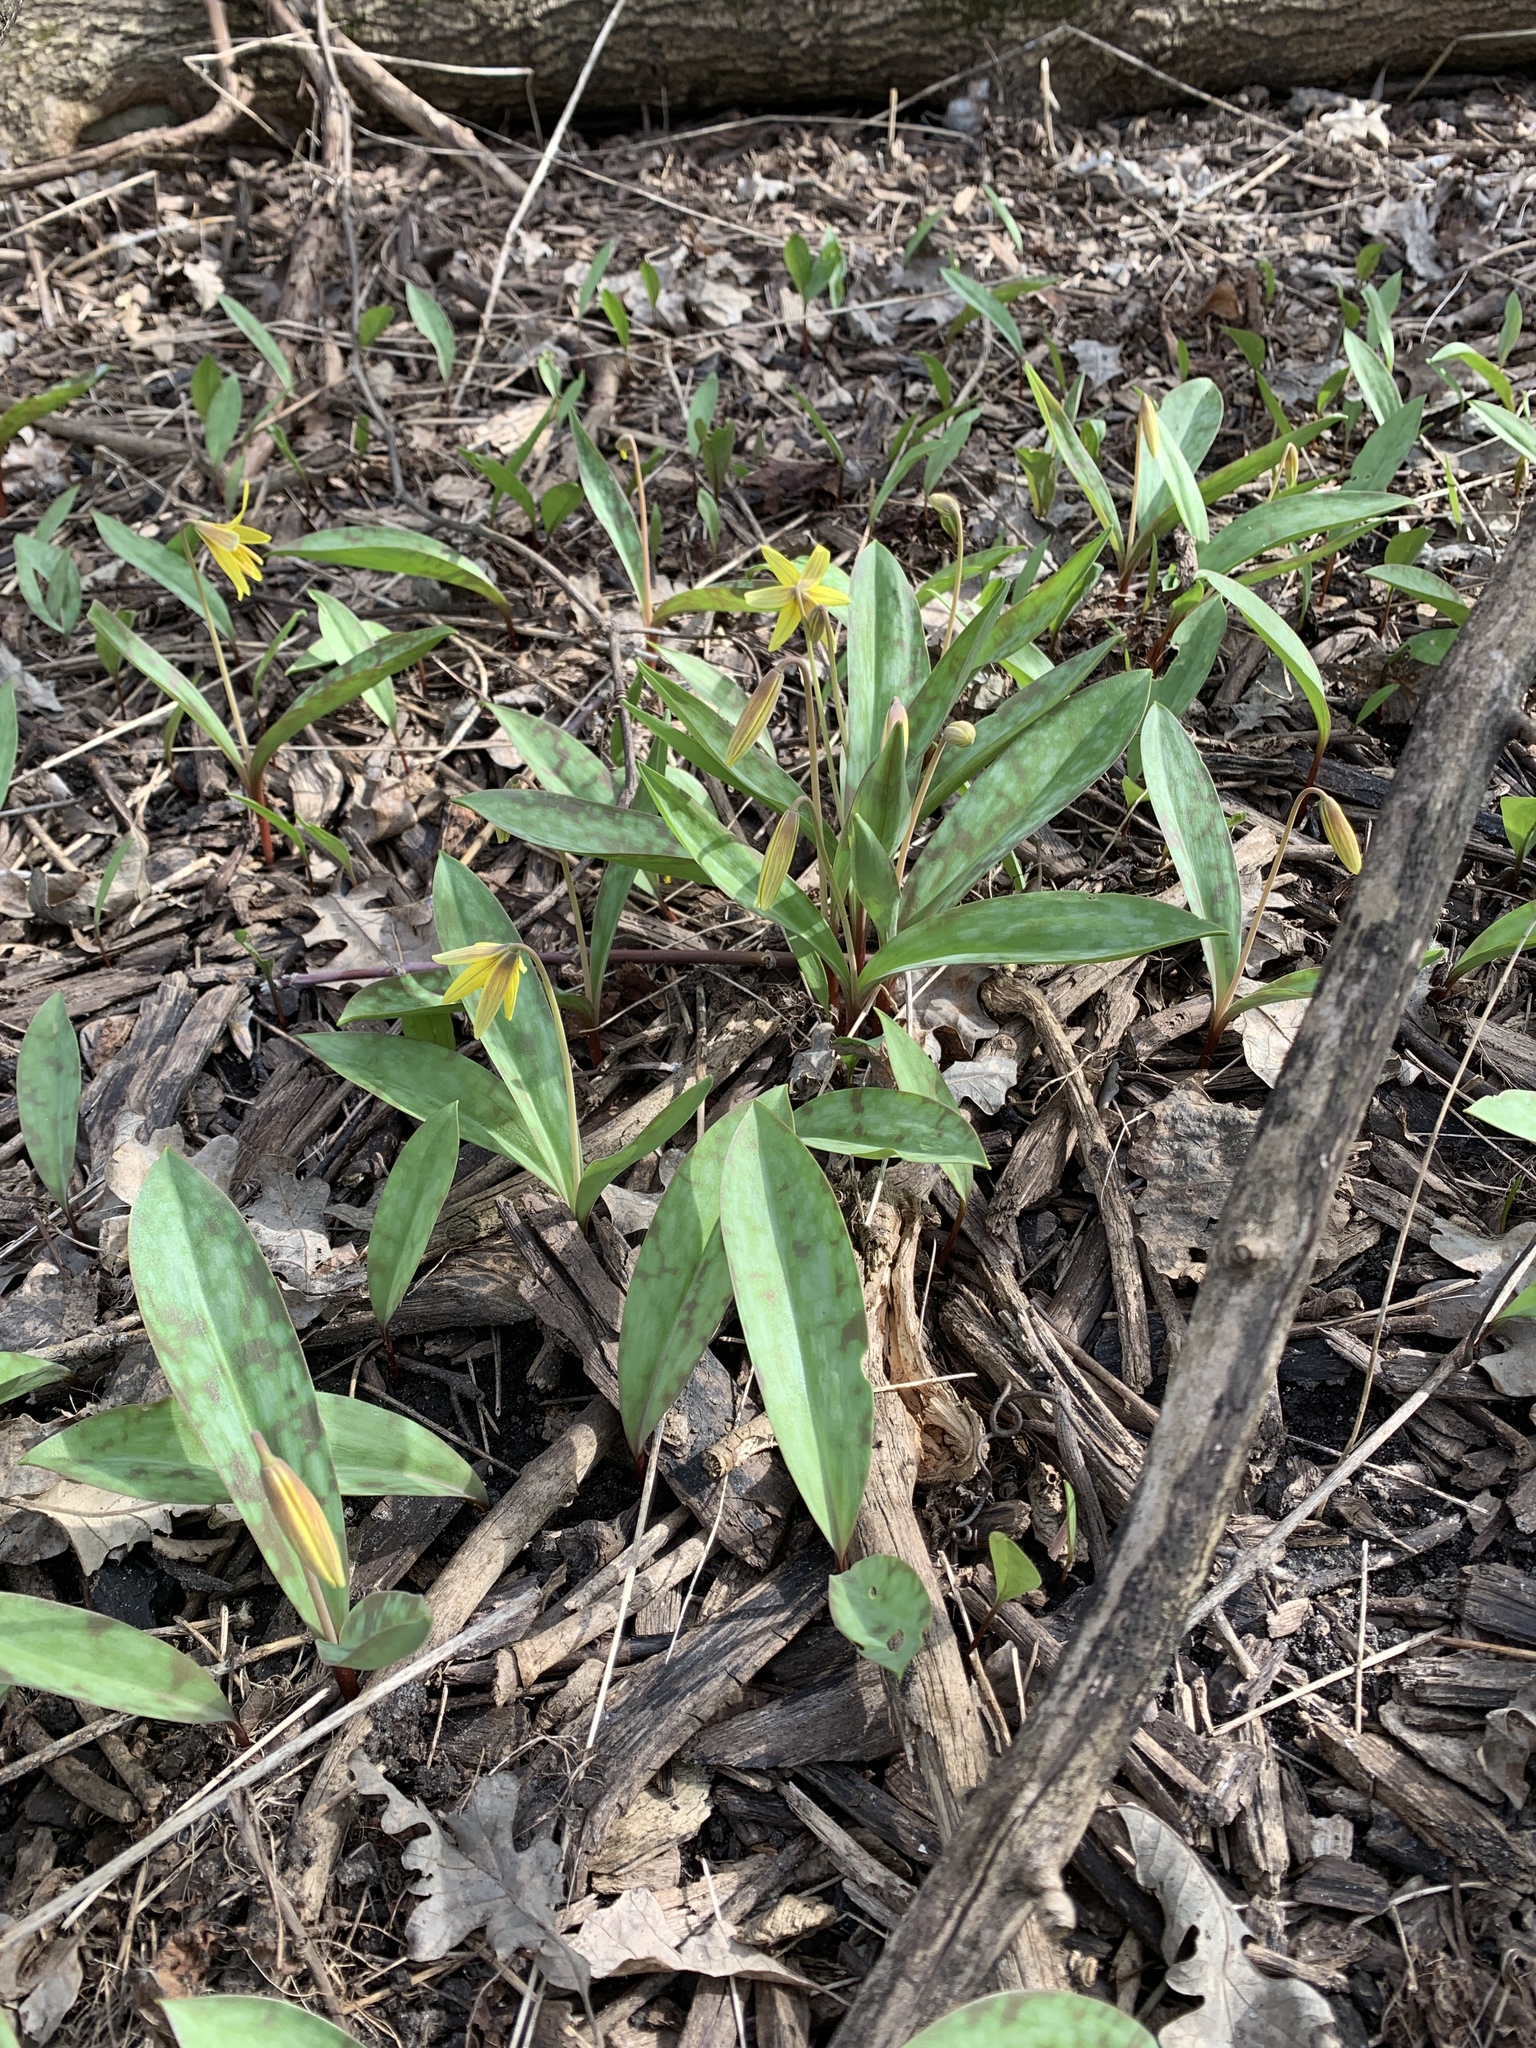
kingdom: Plantae
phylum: Tracheophyta
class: Liliopsida
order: Liliales
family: Liliaceae
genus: Erythronium
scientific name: Erythronium americanum
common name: Yellow adder's-tongue
